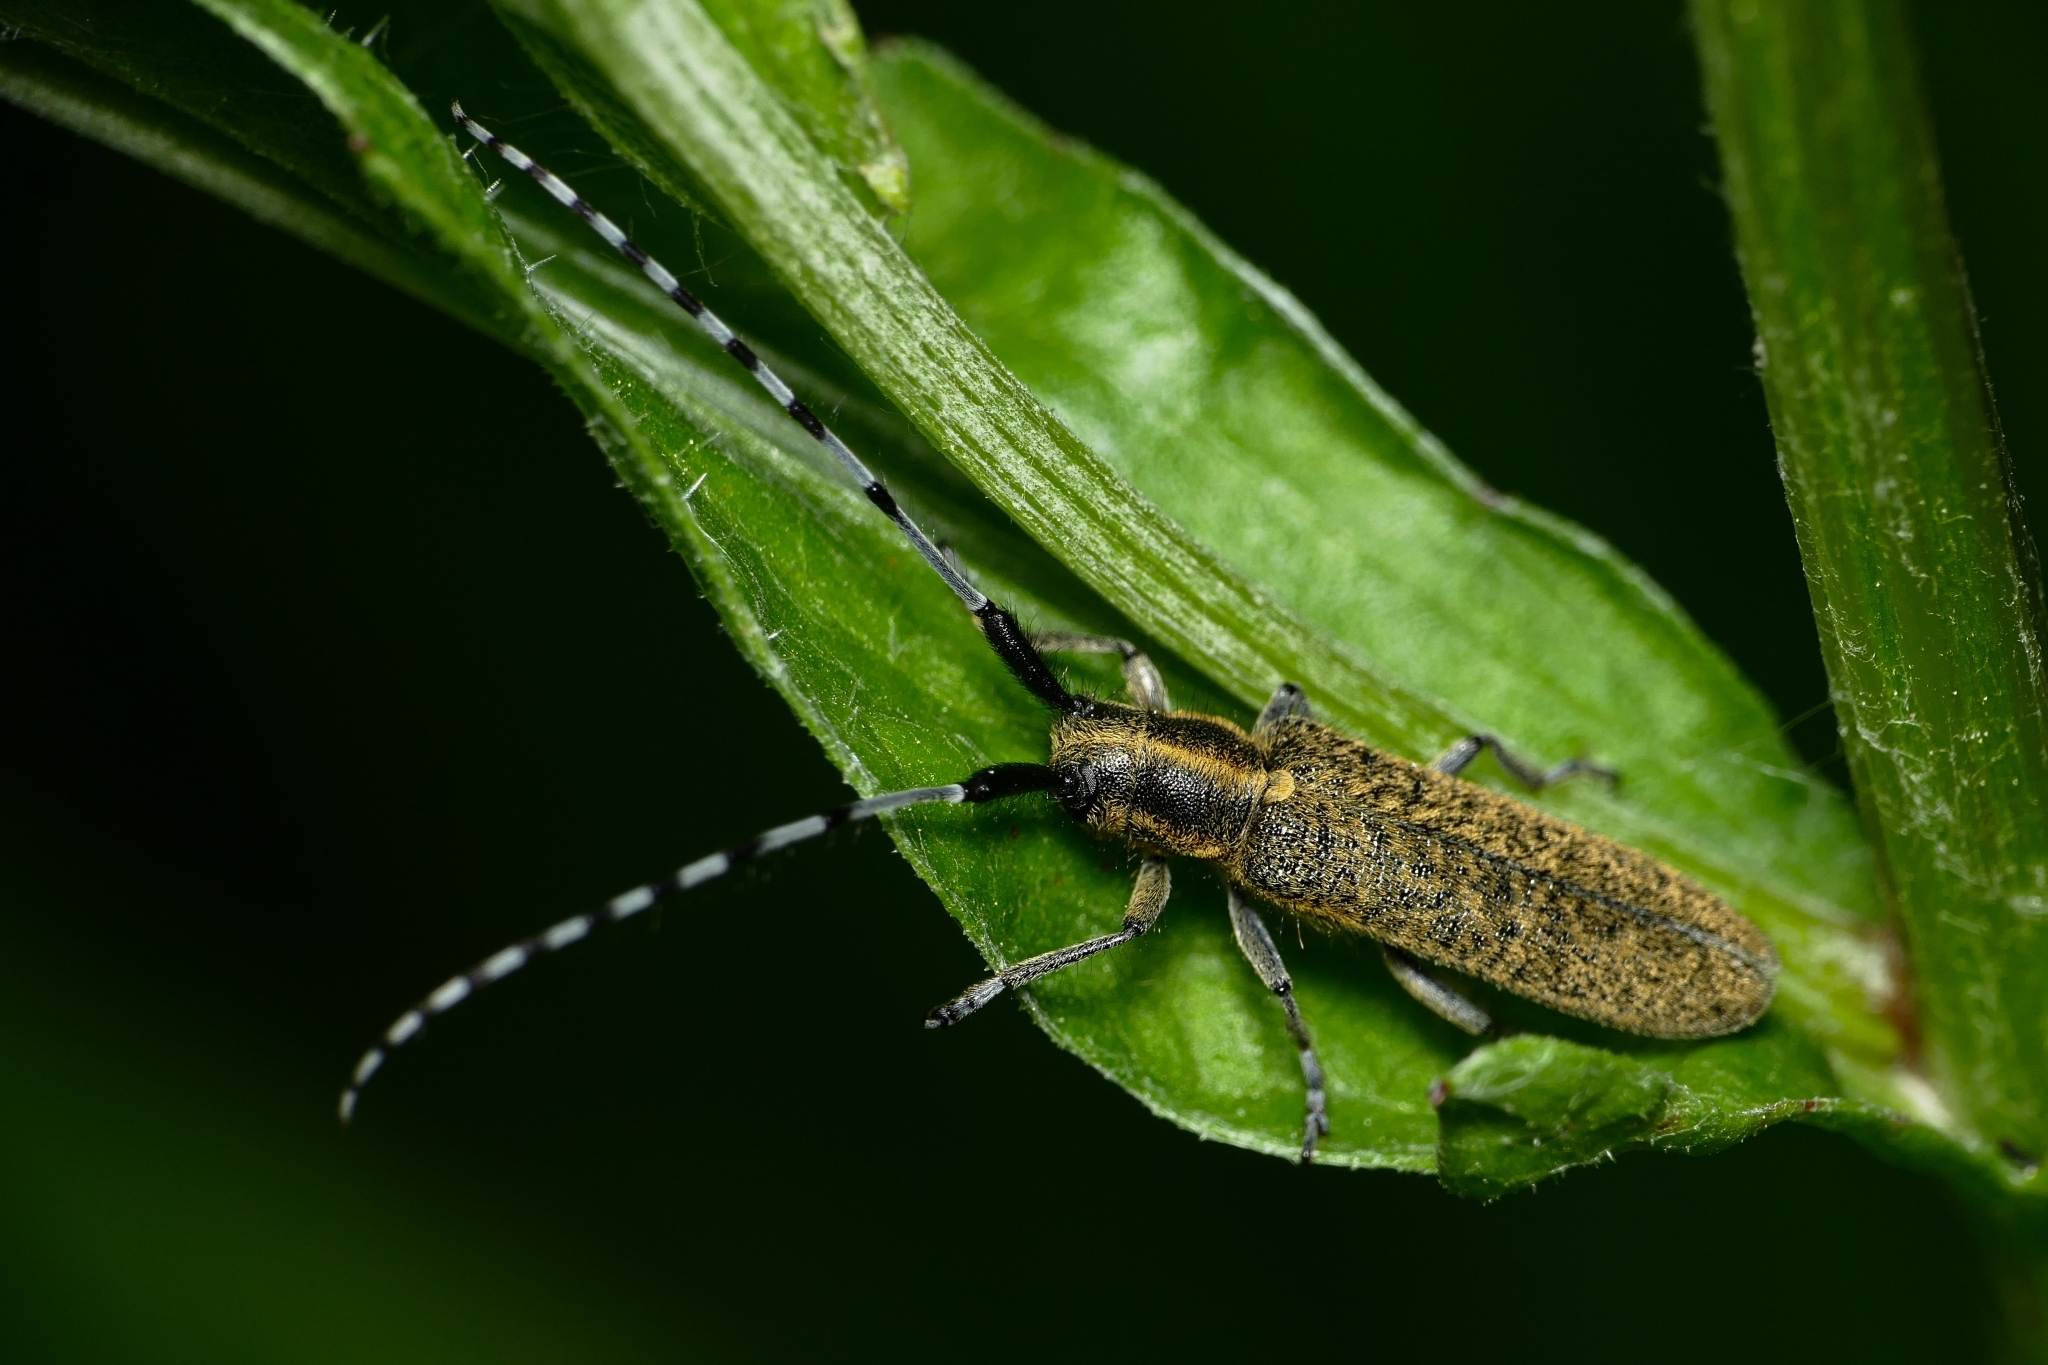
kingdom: Animalia
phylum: Arthropoda
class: Insecta
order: Coleoptera
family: Cerambycidae
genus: Agapanthia
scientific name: Agapanthia villosoviridescens
